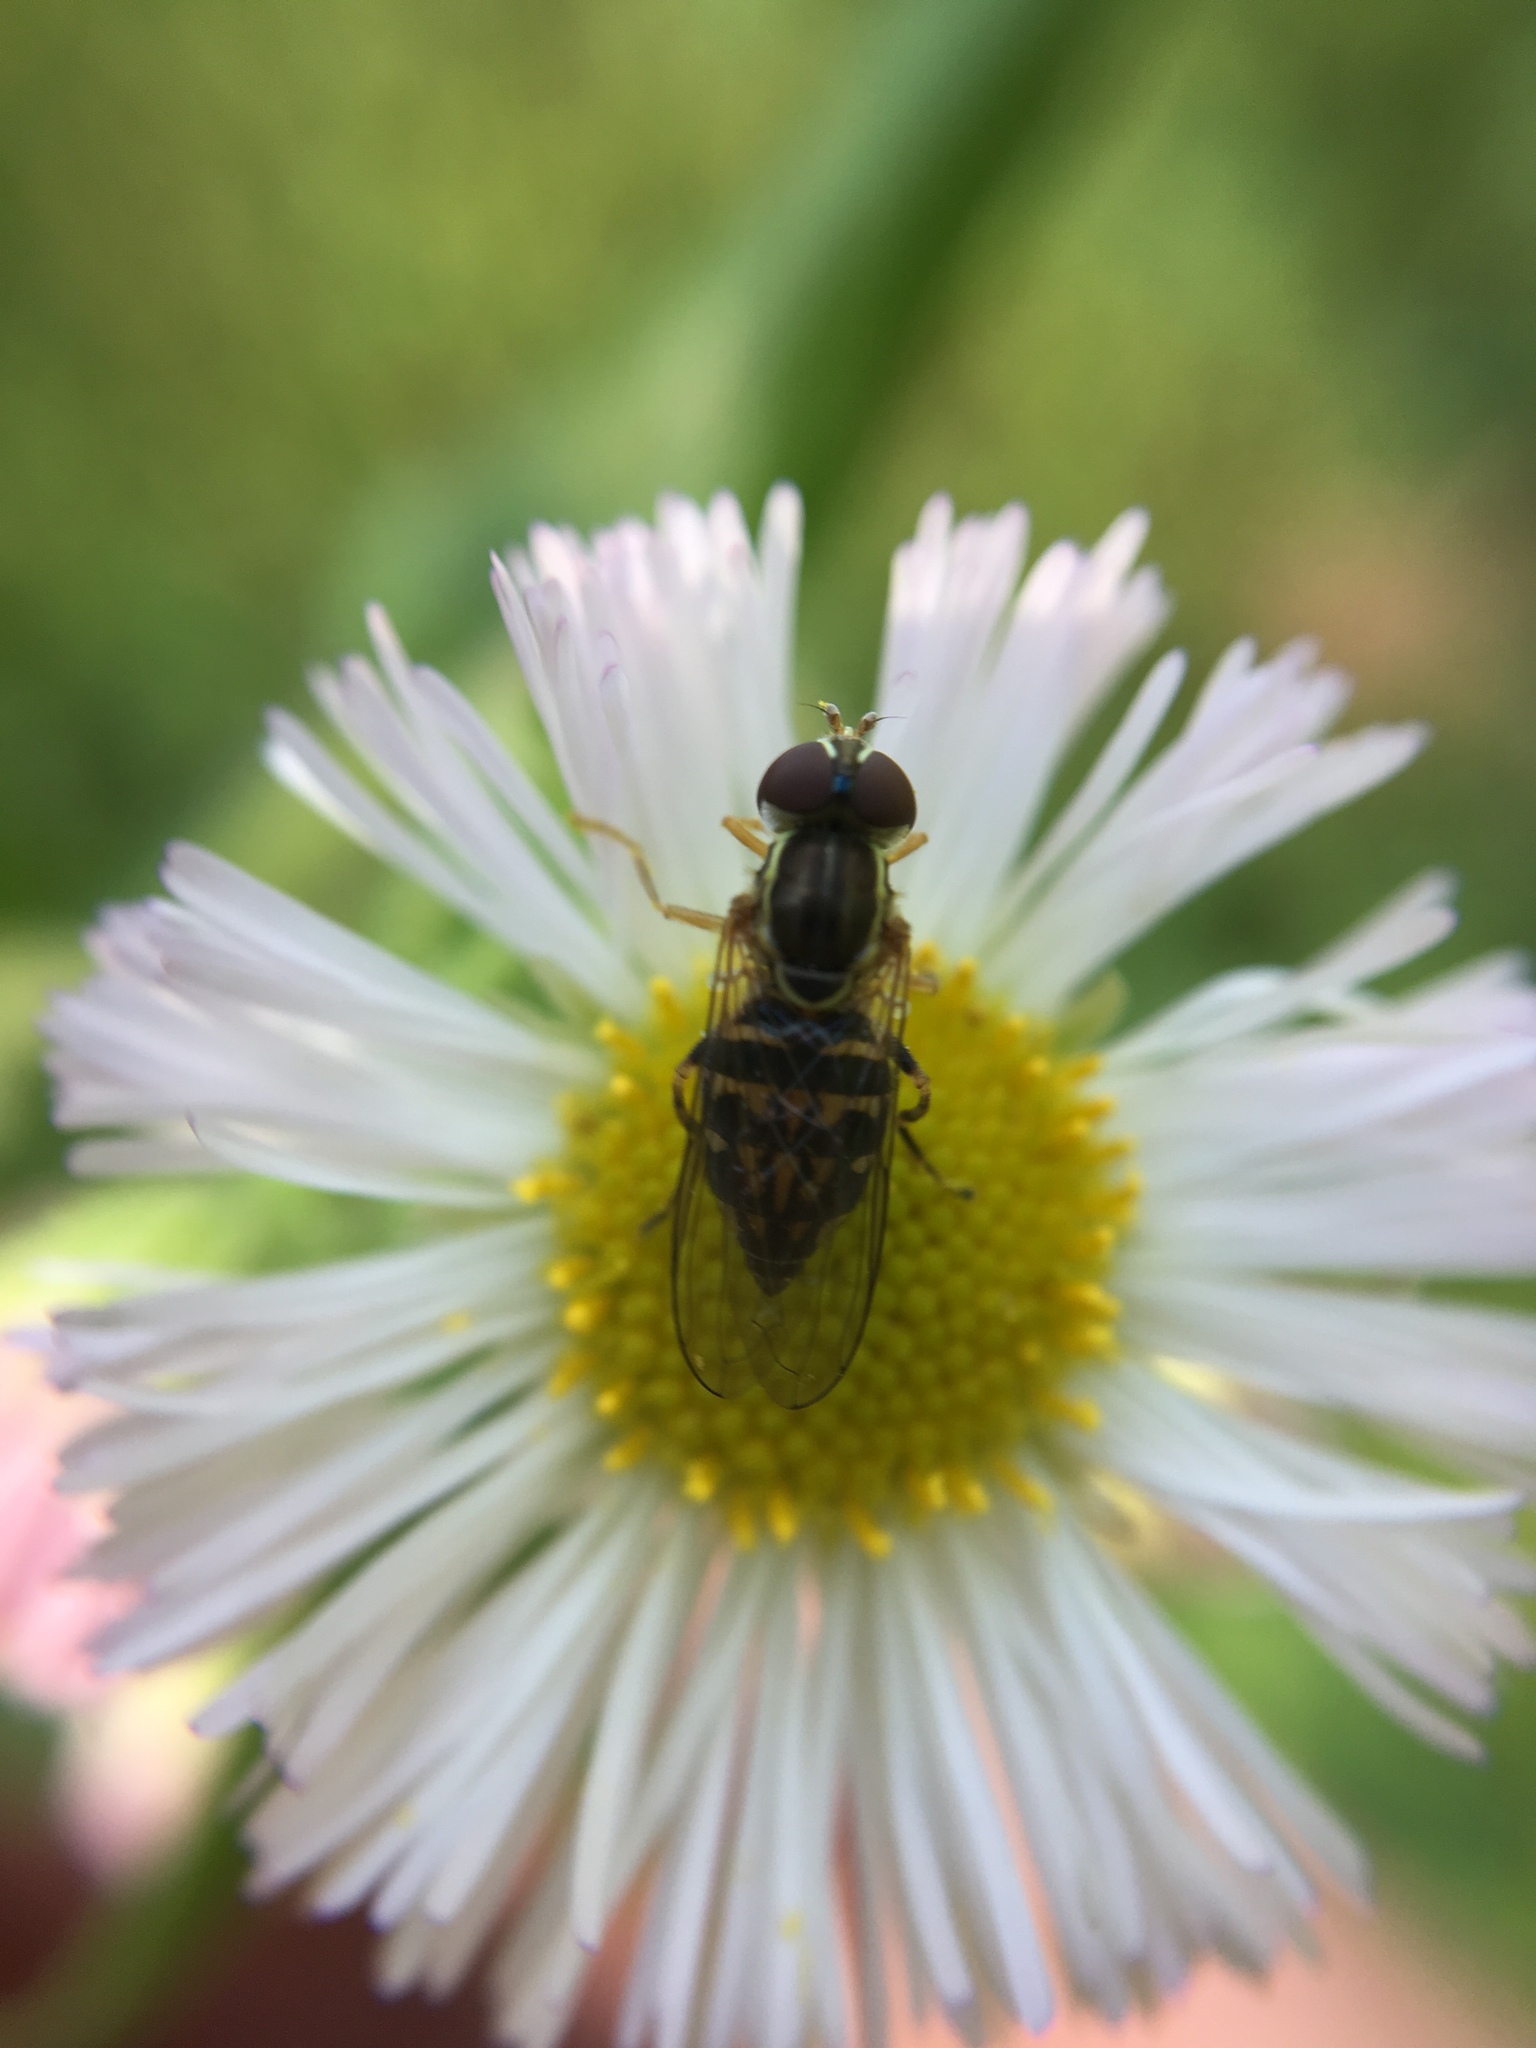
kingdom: Animalia
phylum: Arthropoda
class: Insecta
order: Diptera
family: Syrphidae
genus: Toxomerus
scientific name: Toxomerus geminatus
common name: Eastern calligrapher
